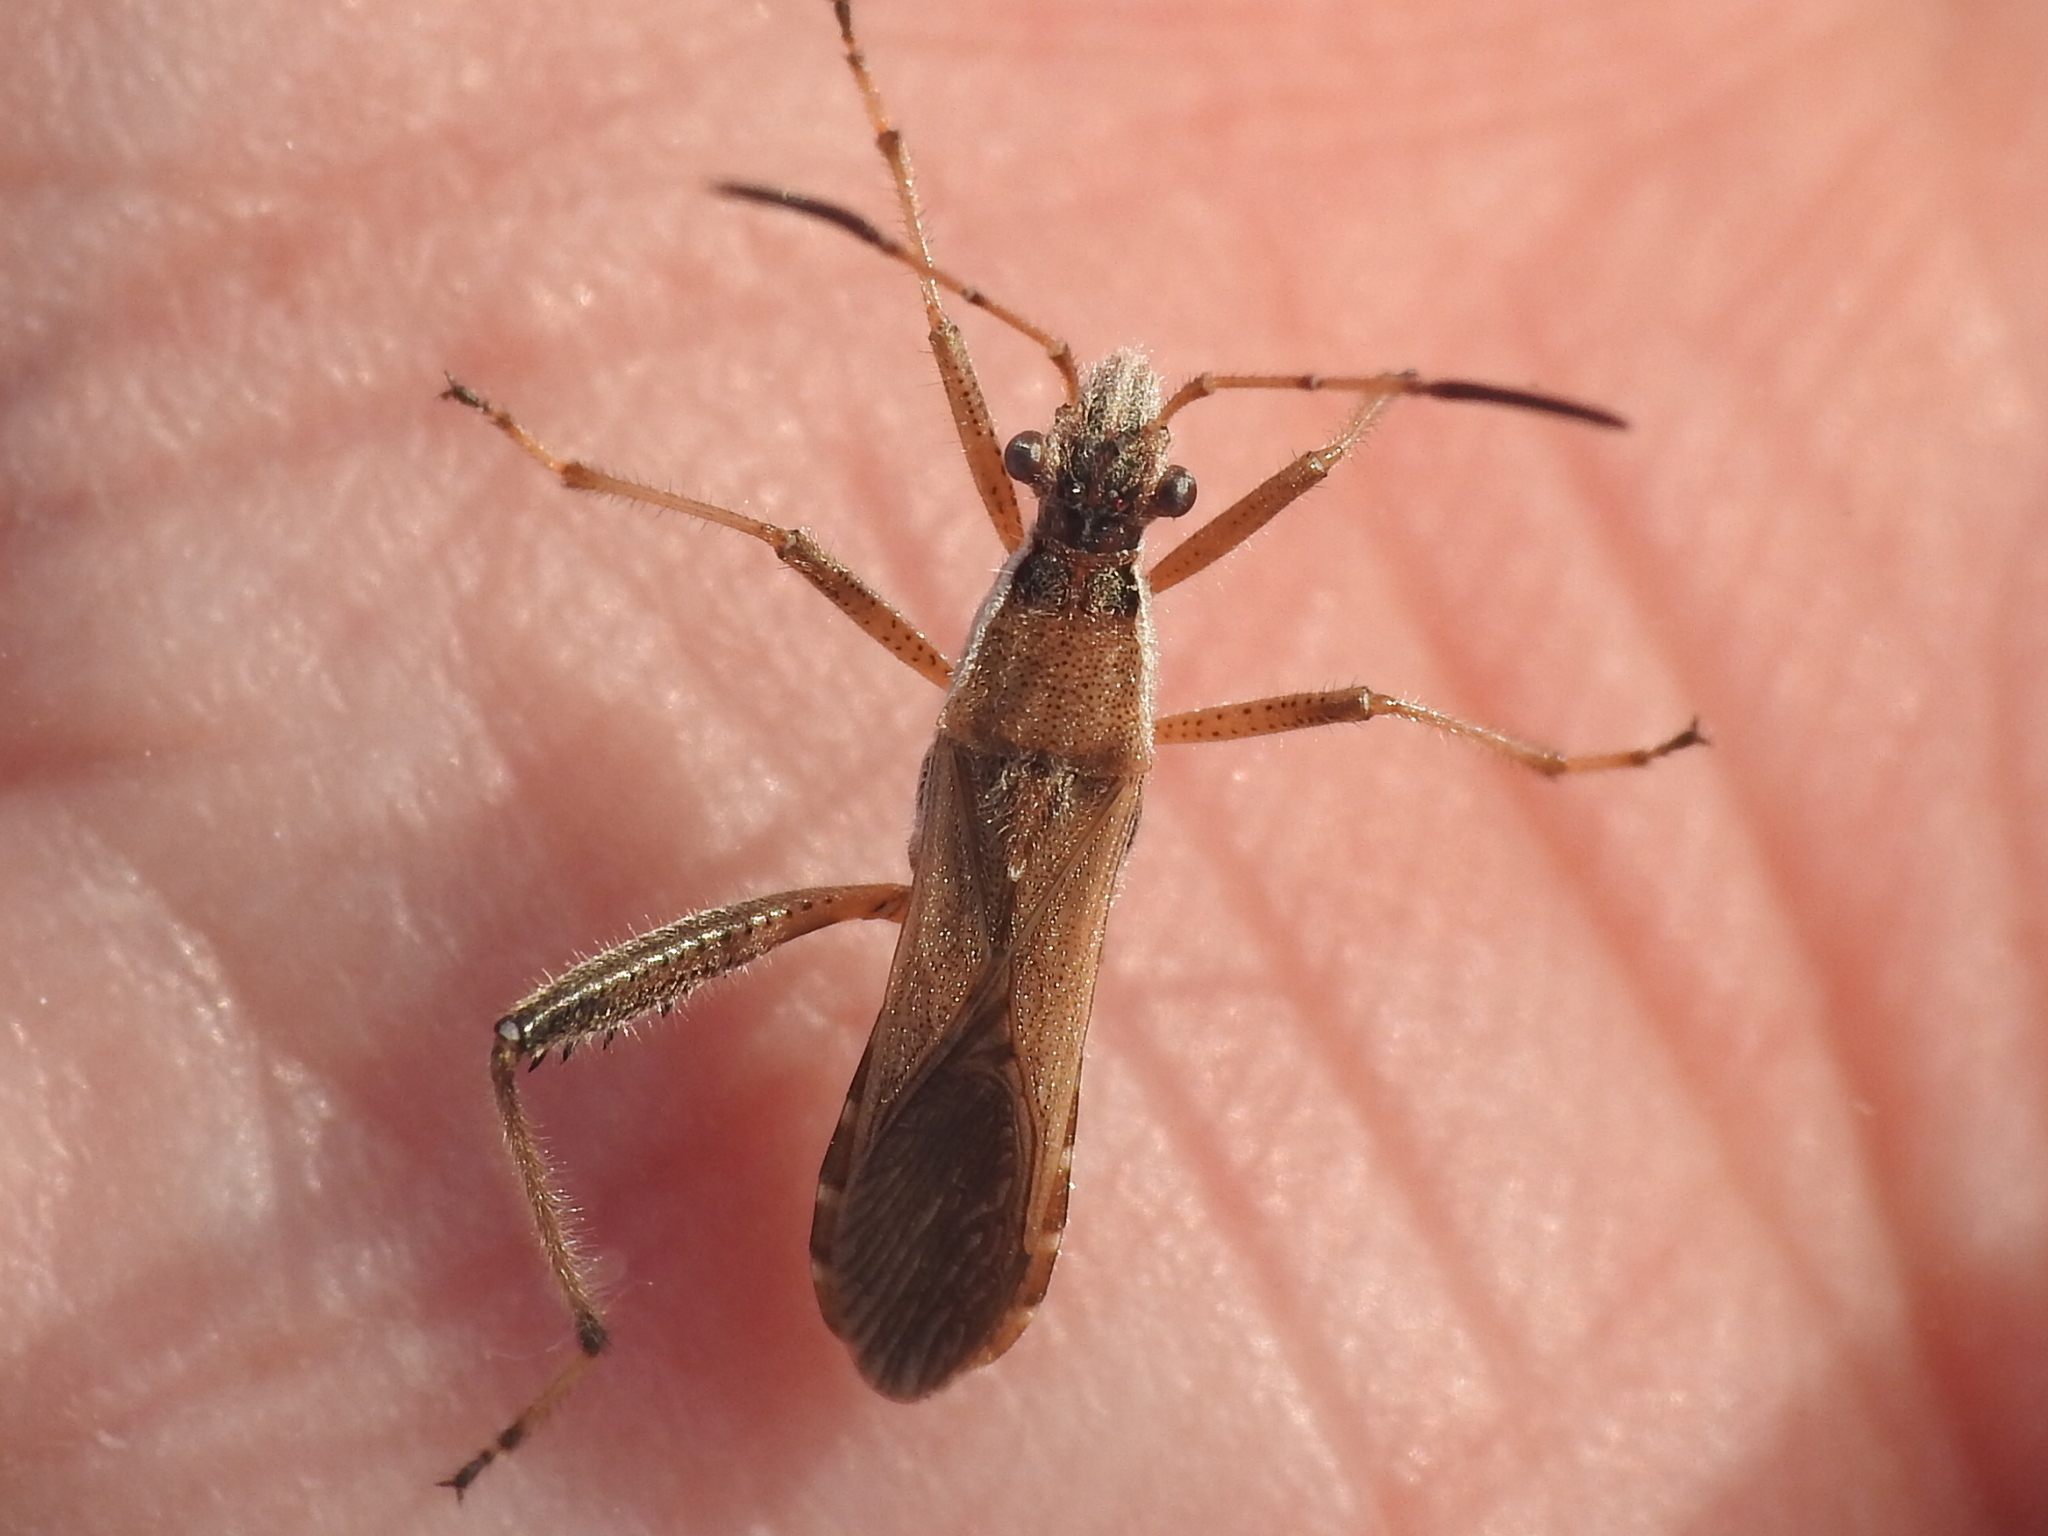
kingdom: Animalia
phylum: Arthropoda
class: Insecta
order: Hemiptera
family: Alydidae
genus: Alydus
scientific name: Alydus pilosulus
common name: Broad-headed bug
